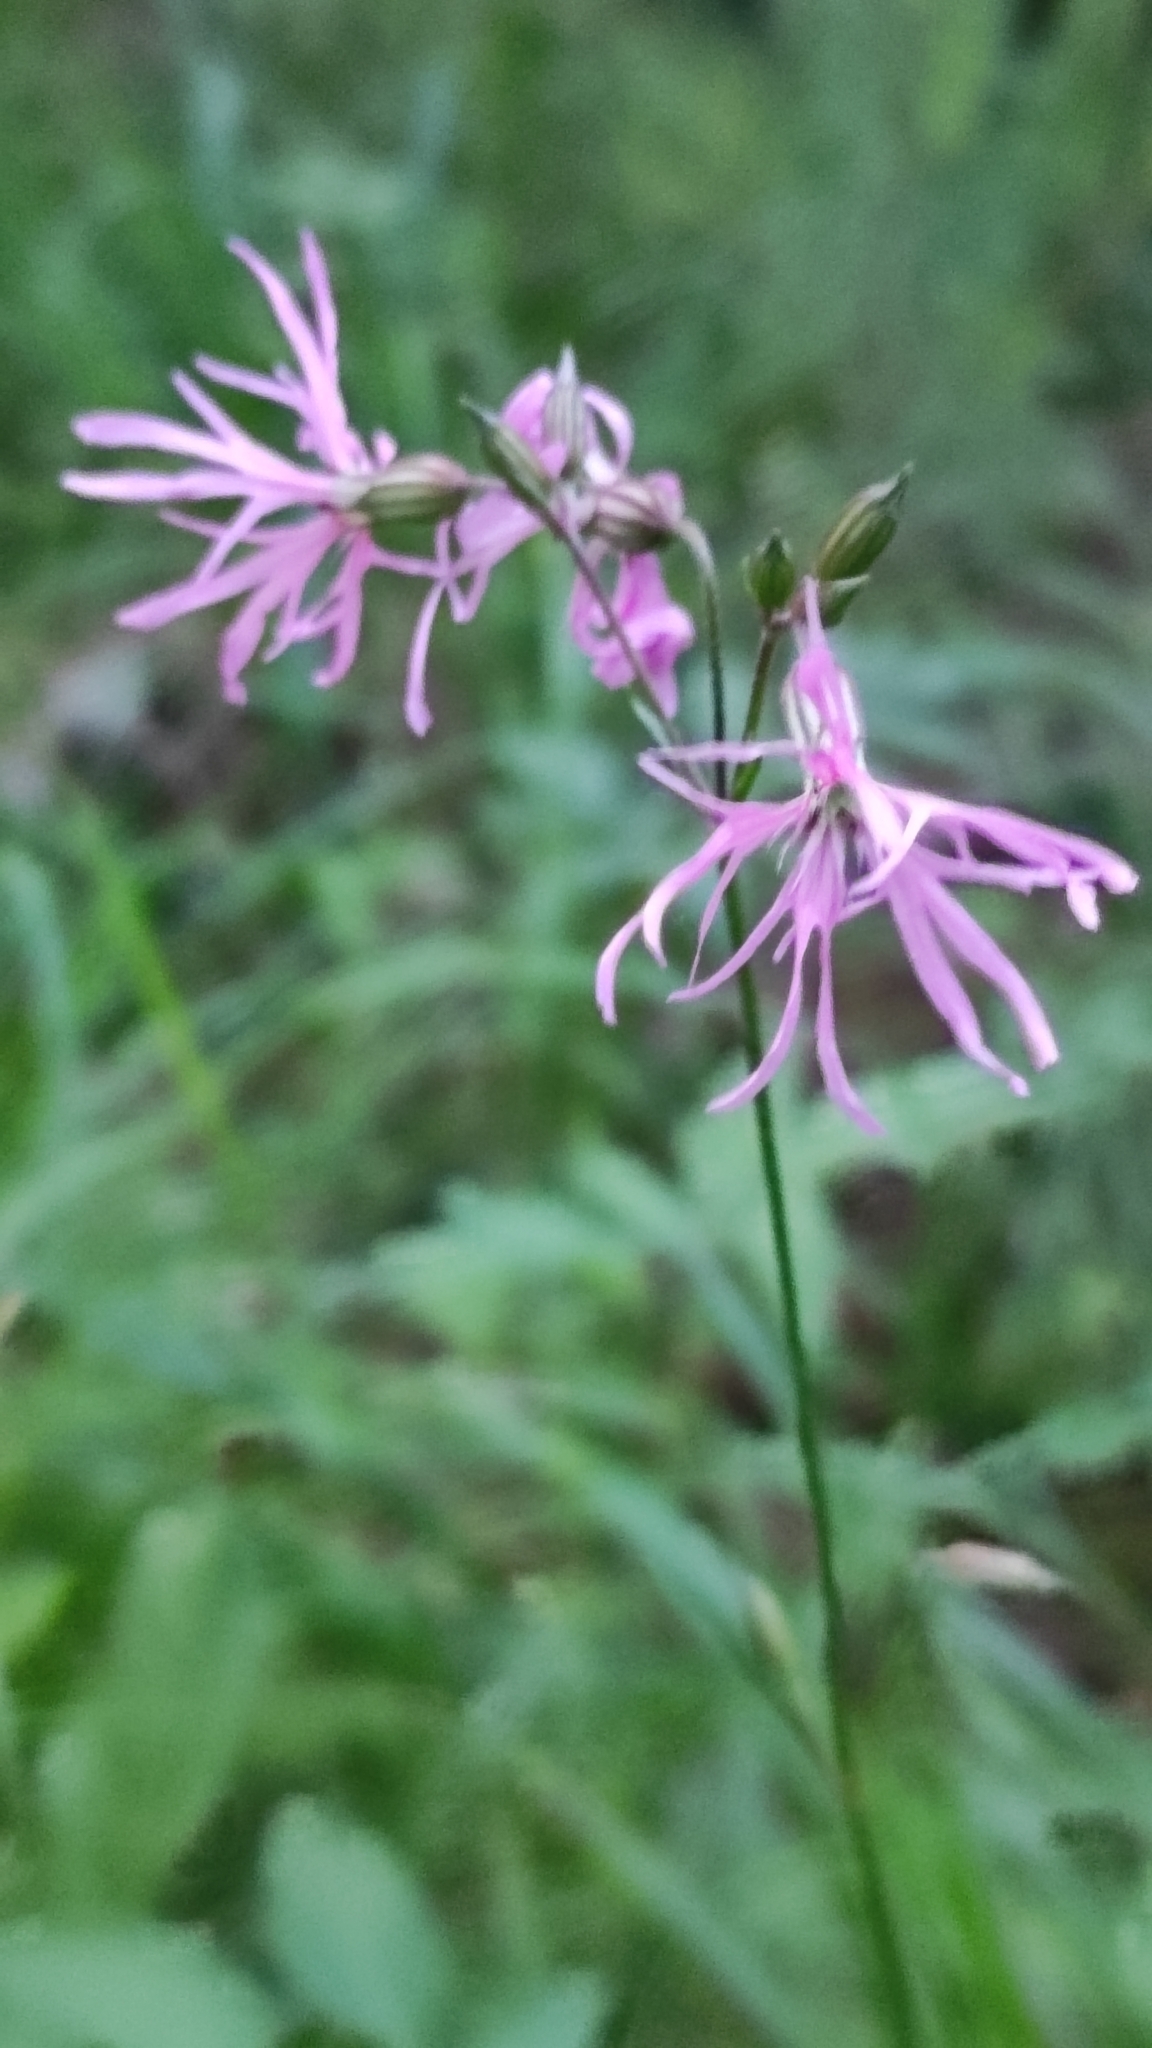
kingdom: Plantae
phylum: Tracheophyta
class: Magnoliopsida
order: Caryophyllales
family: Caryophyllaceae
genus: Silene
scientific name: Silene flos-cuculi
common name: Ragged-robin
